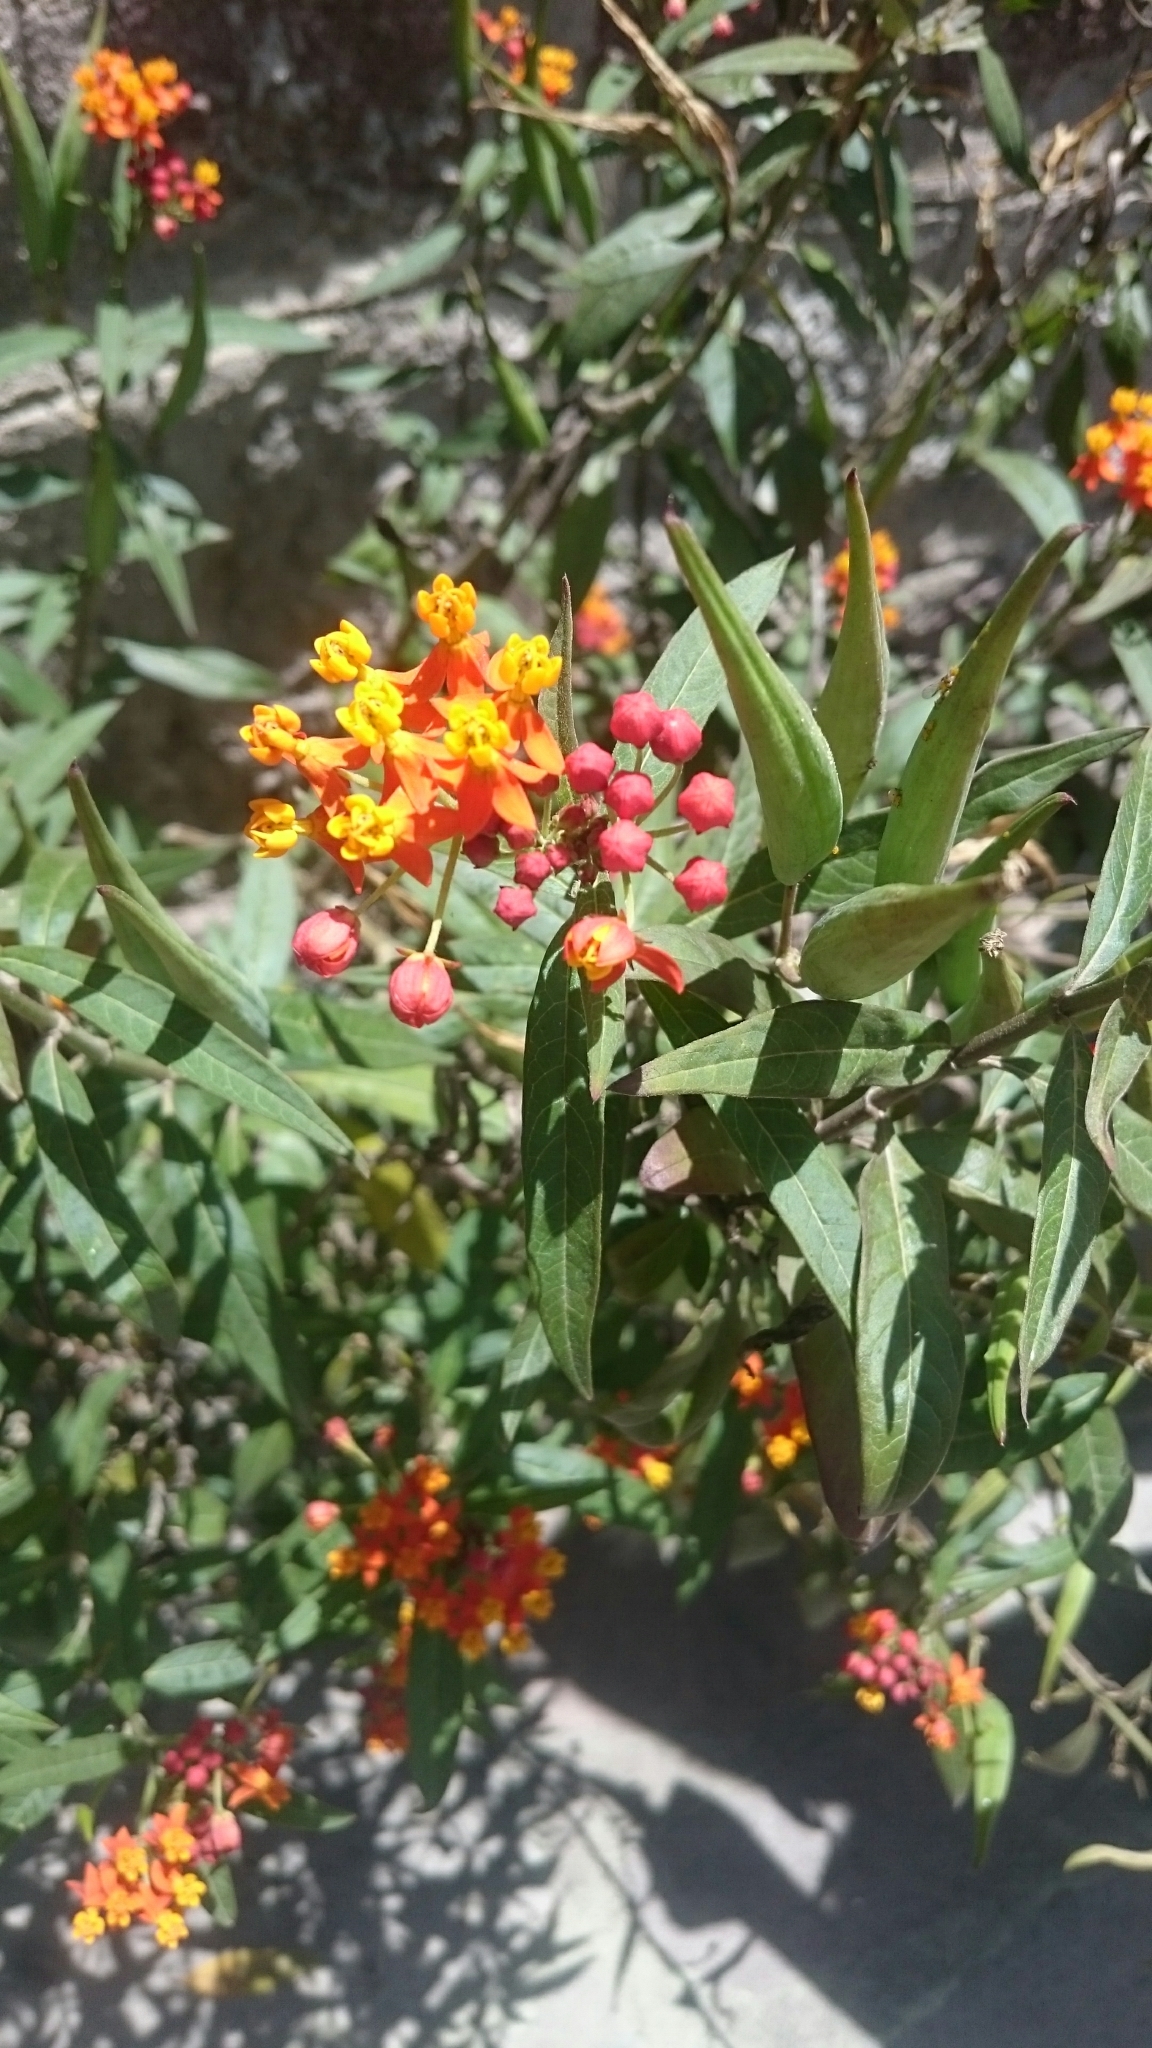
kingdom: Plantae
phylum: Tracheophyta
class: Magnoliopsida
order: Gentianales
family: Apocynaceae
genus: Asclepias
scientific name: Asclepias curassavica
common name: Bloodflower
